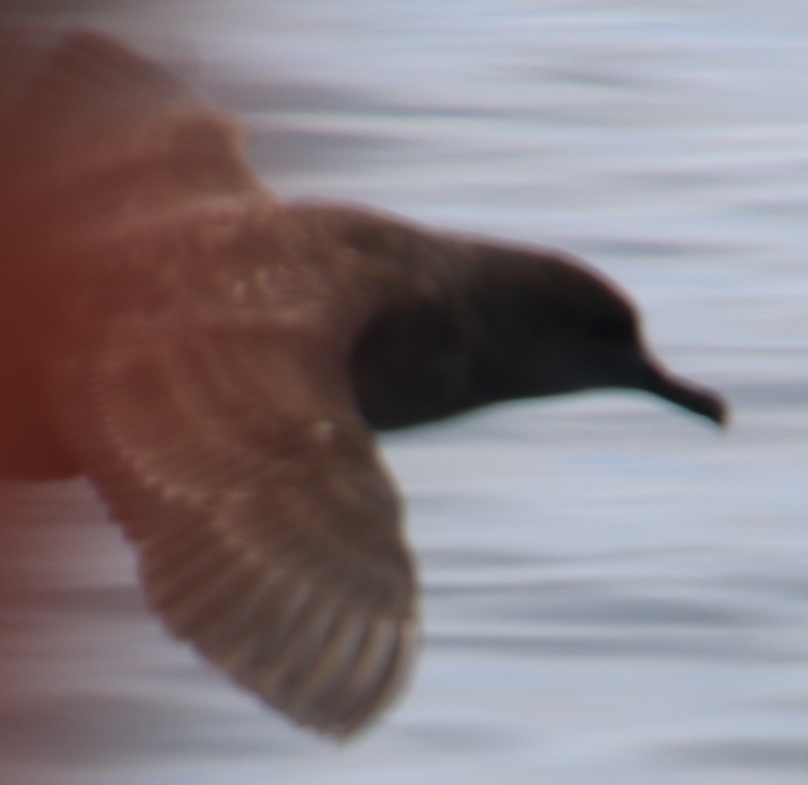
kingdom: Animalia
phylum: Chordata
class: Aves
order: Procellariiformes
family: Procellariidae
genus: Puffinus
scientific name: Puffinus griseus
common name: Sooty shearwater
